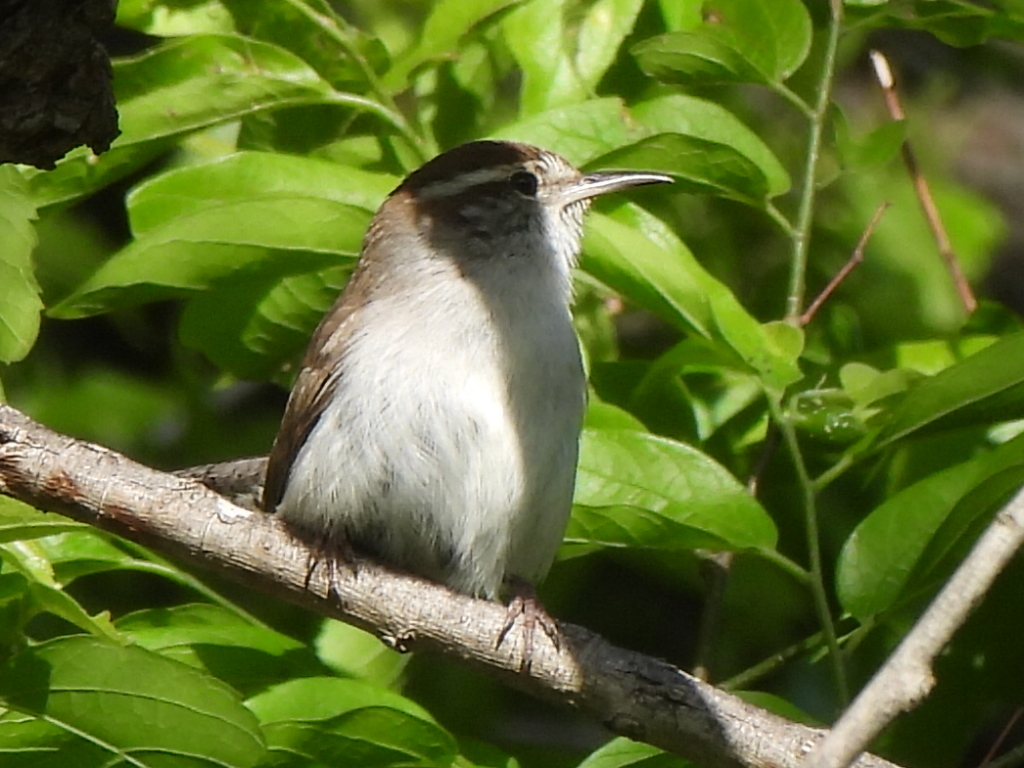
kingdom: Animalia
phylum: Chordata
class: Aves
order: Passeriformes
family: Troglodytidae
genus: Thryomanes
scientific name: Thryomanes bewickii
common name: Bewick's wren
